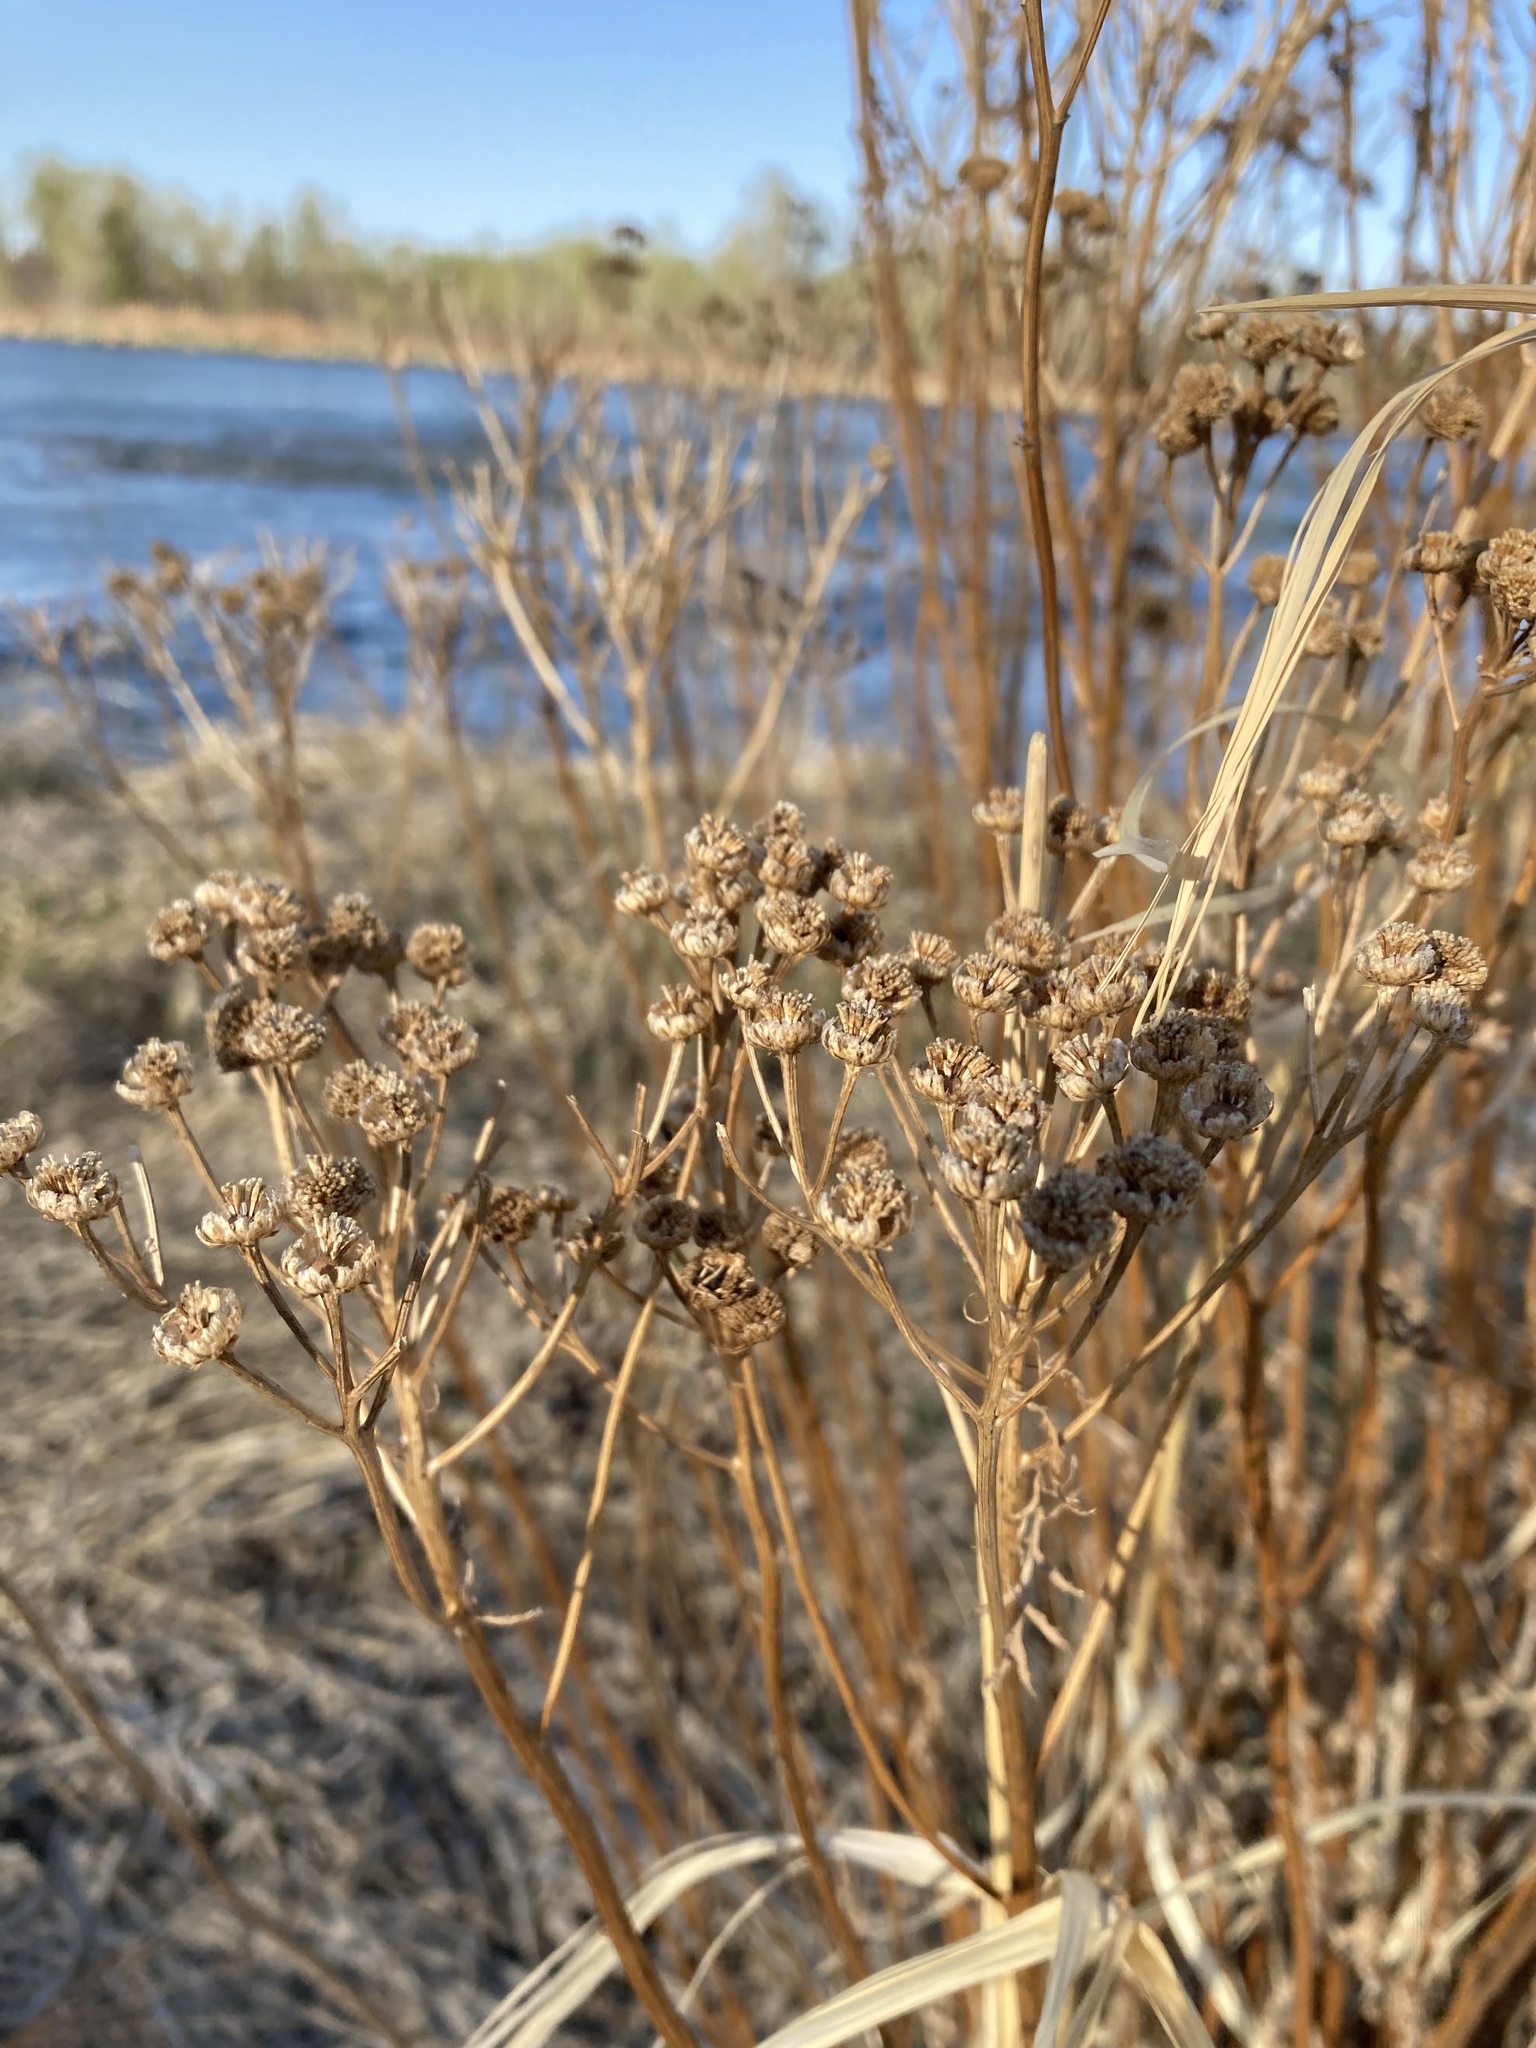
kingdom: Plantae
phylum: Tracheophyta
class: Magnoliopsida
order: Asterales
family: Asteraceae
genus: Tanacetum
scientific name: Tanacetum vulgare
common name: Common tansy
